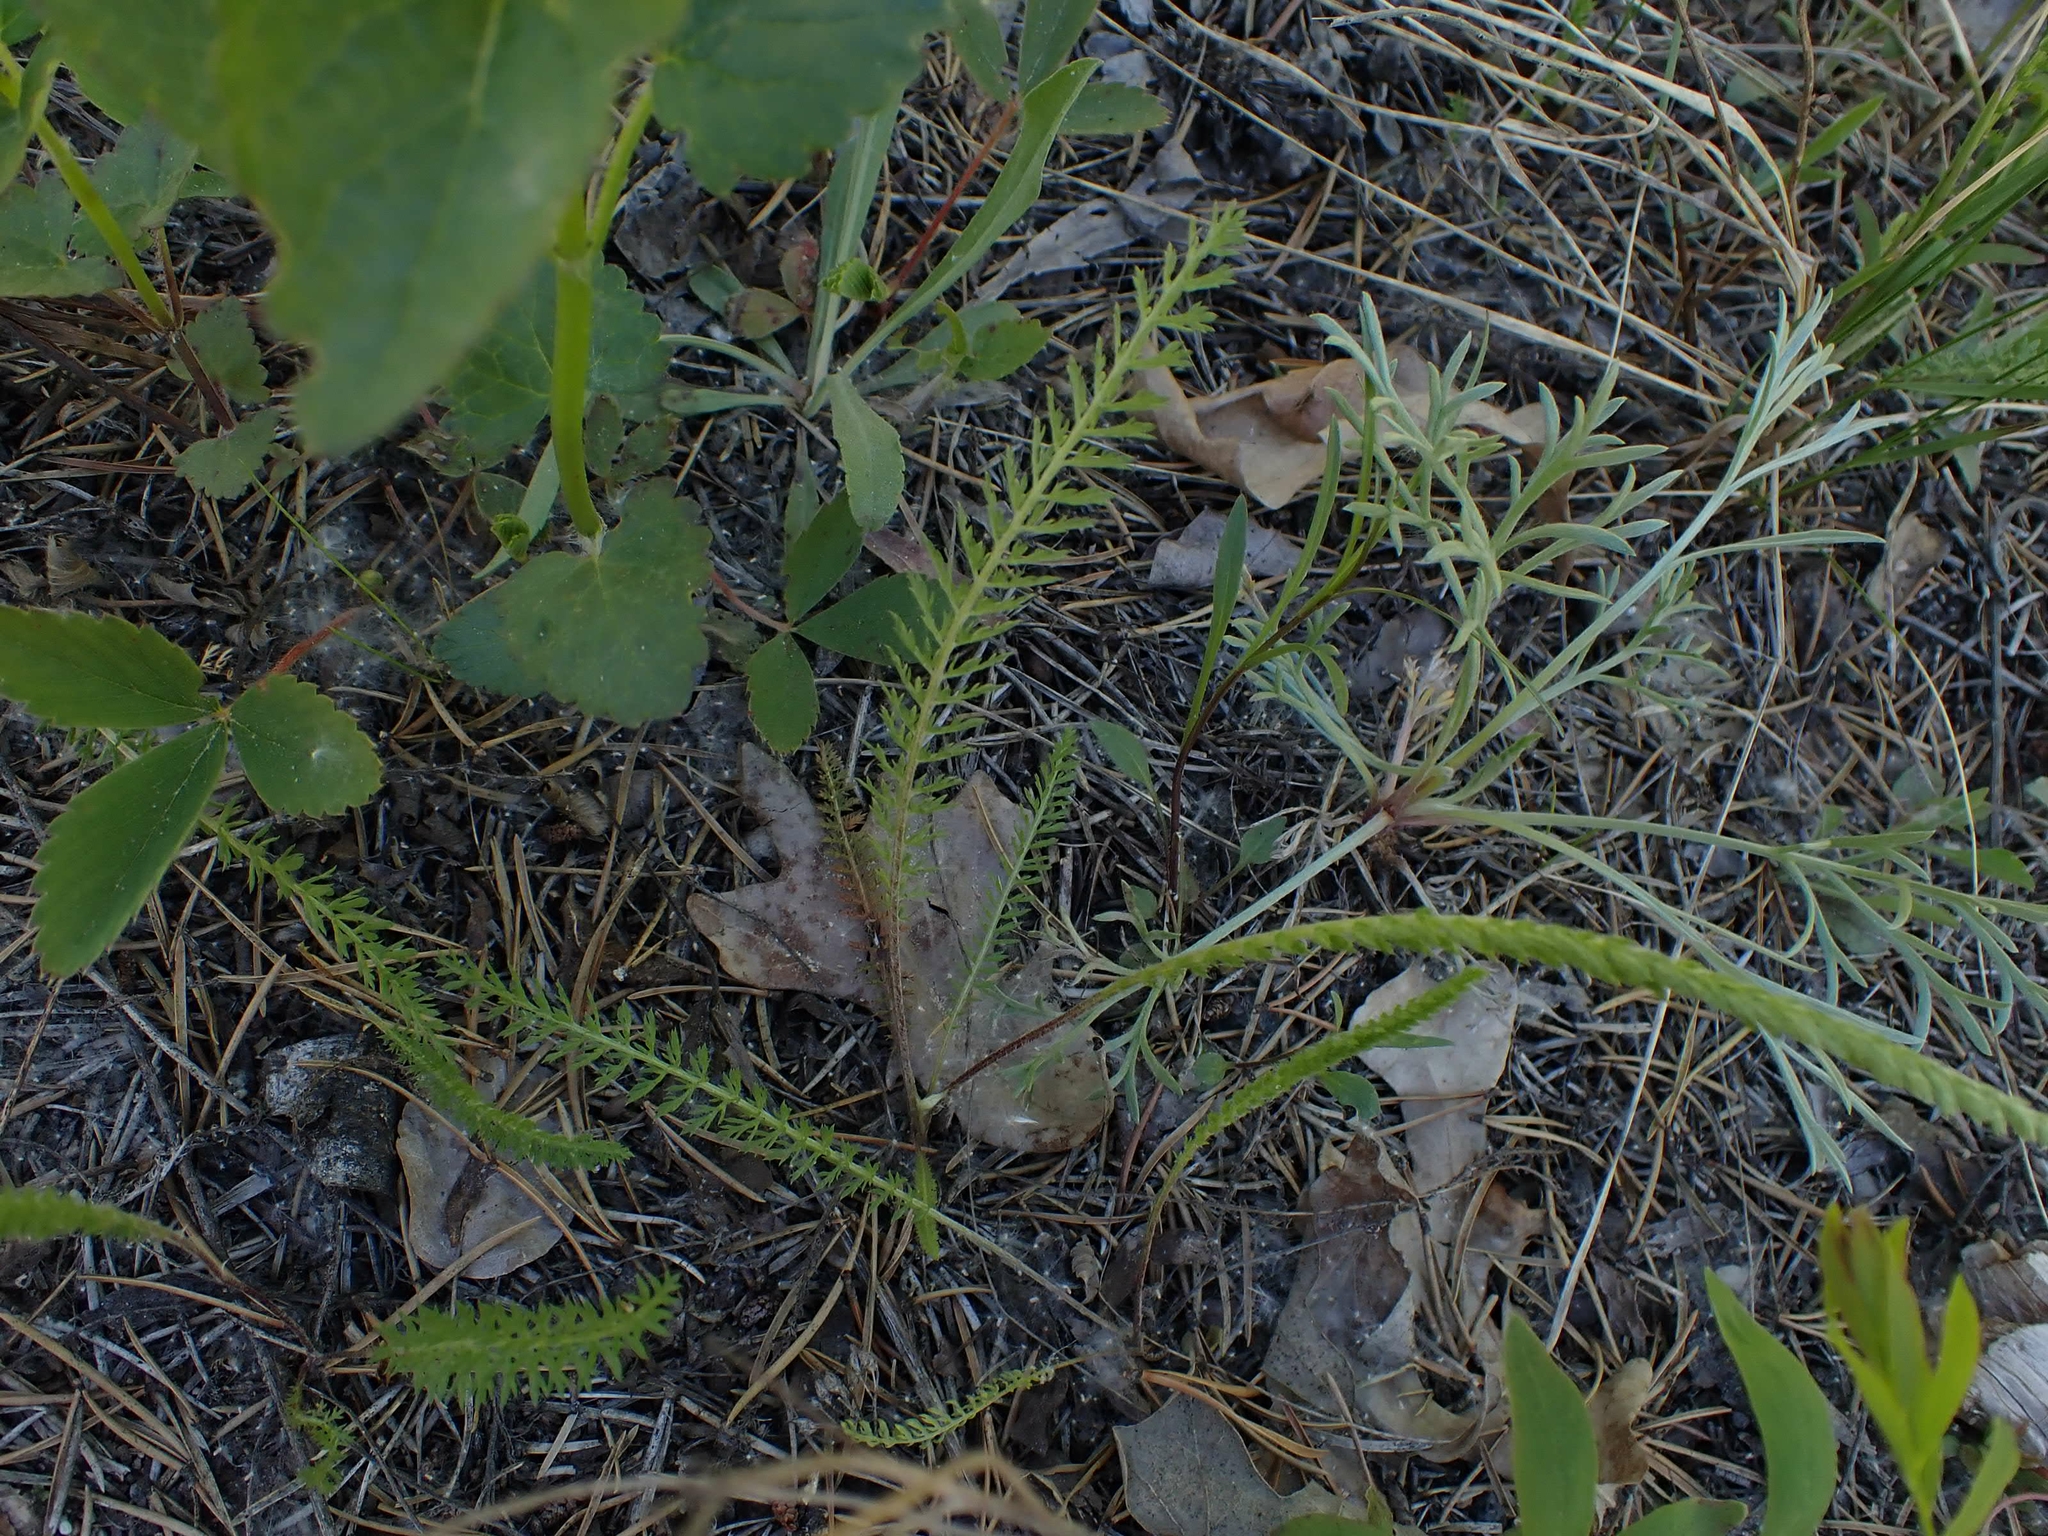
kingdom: Plantae
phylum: Tracheophyta
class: Magnoliopsida
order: Asterales
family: Asteraceae
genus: Achillea
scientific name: Achillea millefolium
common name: Yarrow
